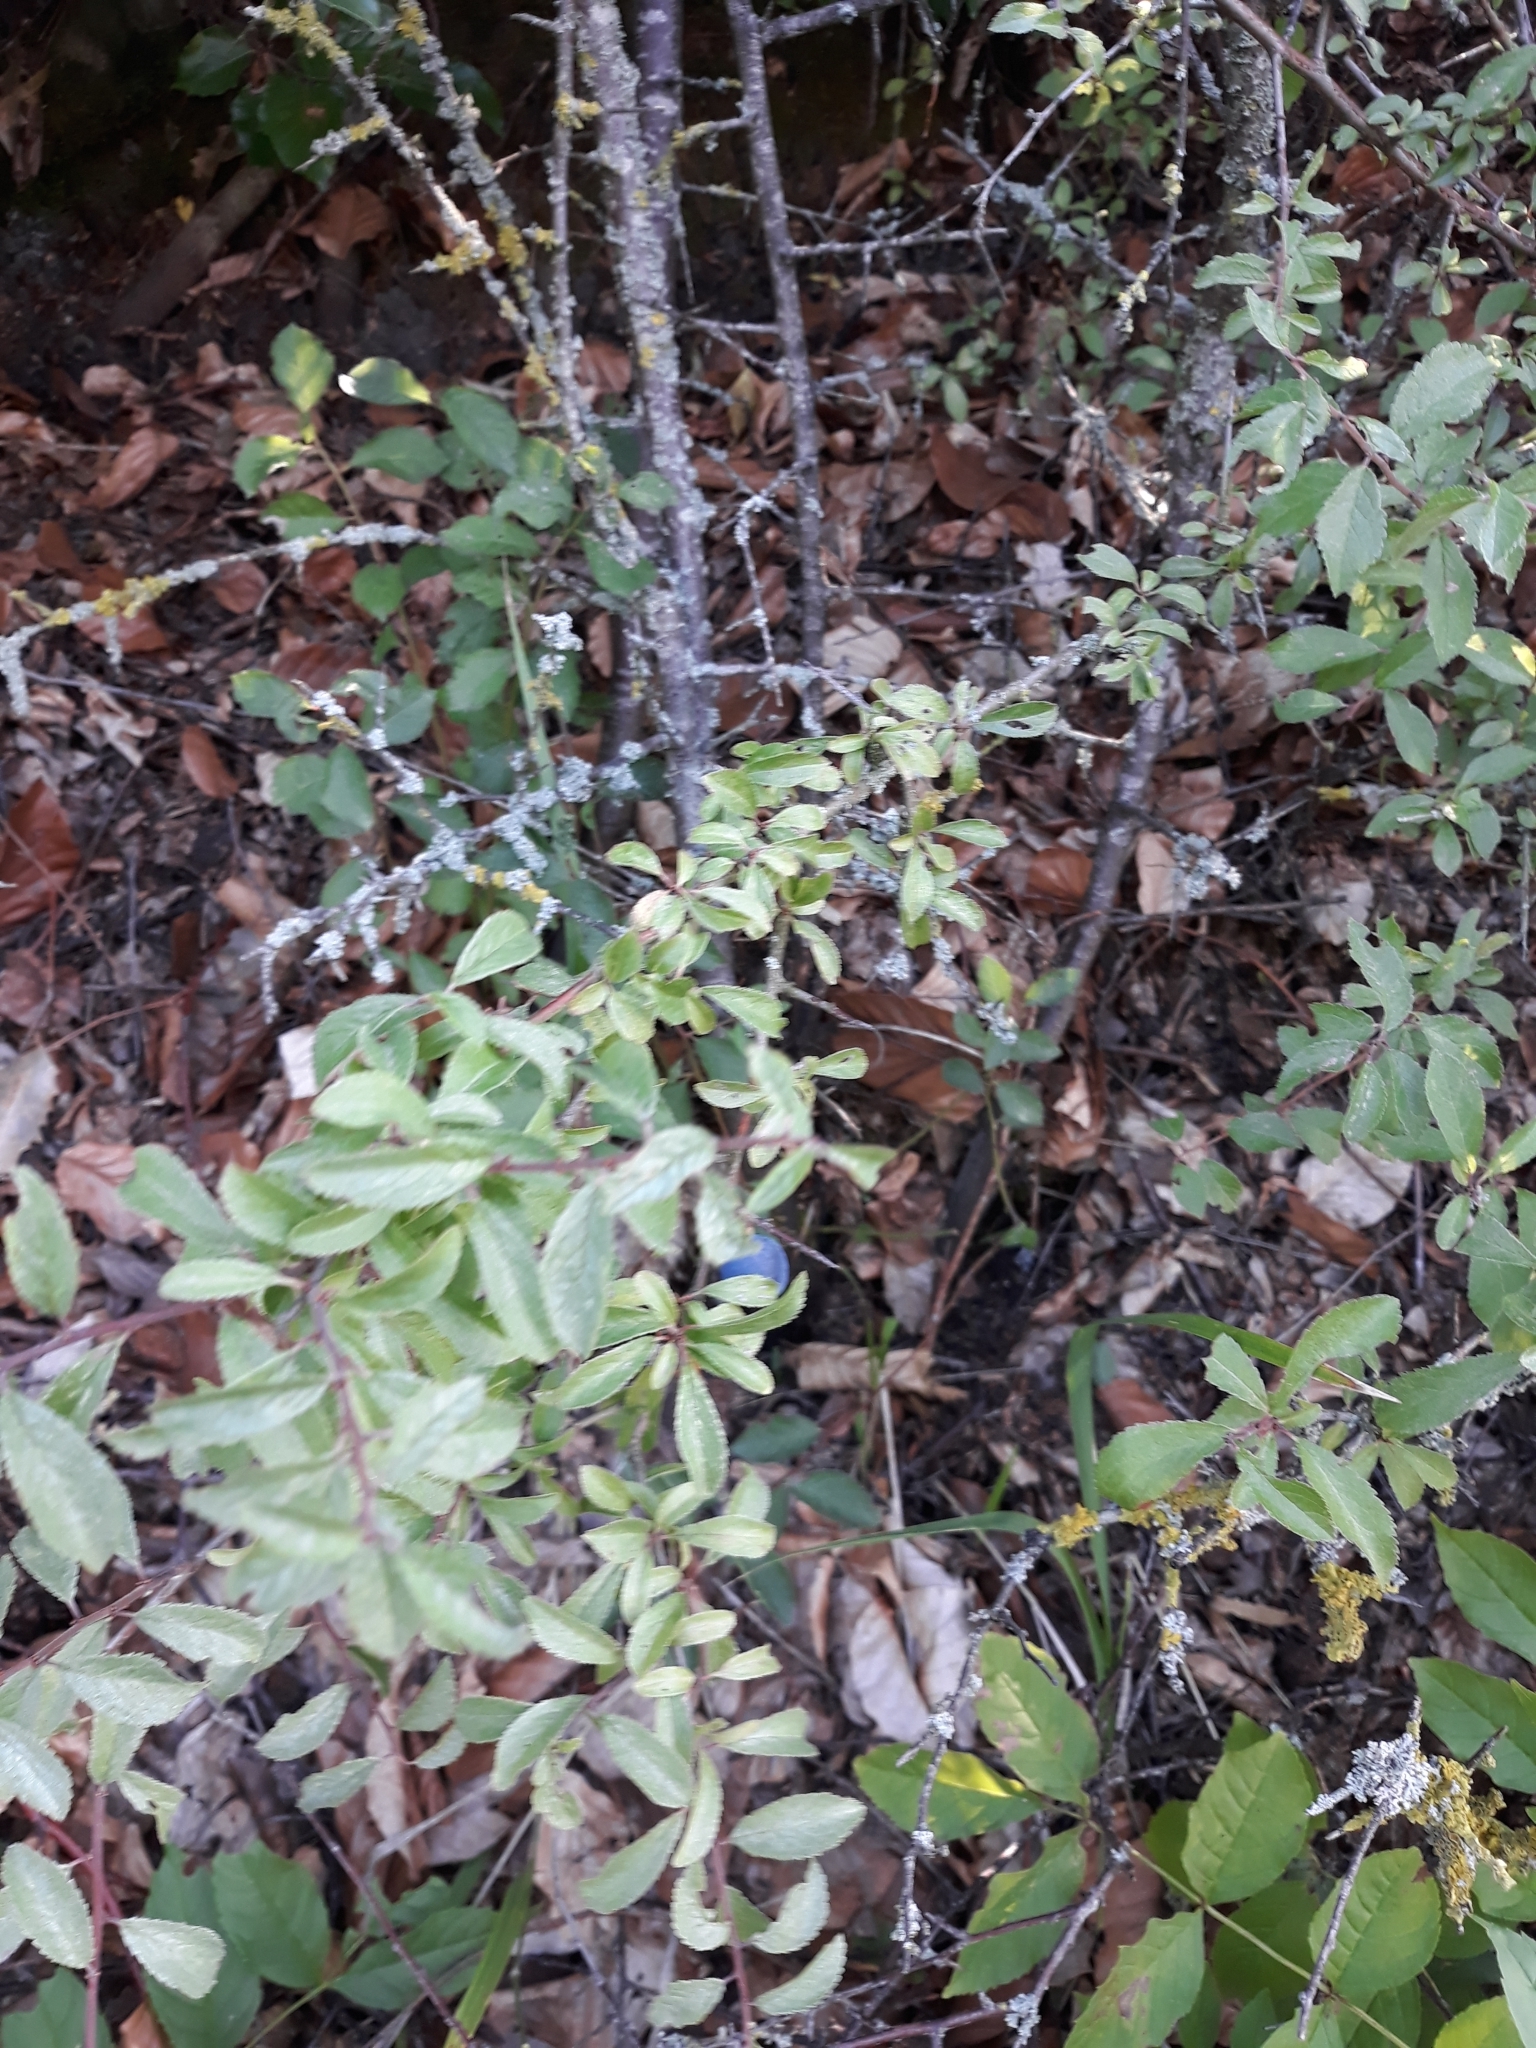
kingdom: Plantae
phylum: Tracheophyta
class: Magnoliopsida
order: Rosales
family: Rosaceae
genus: Prunus
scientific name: Prunus spinosa
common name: Blackthorn
